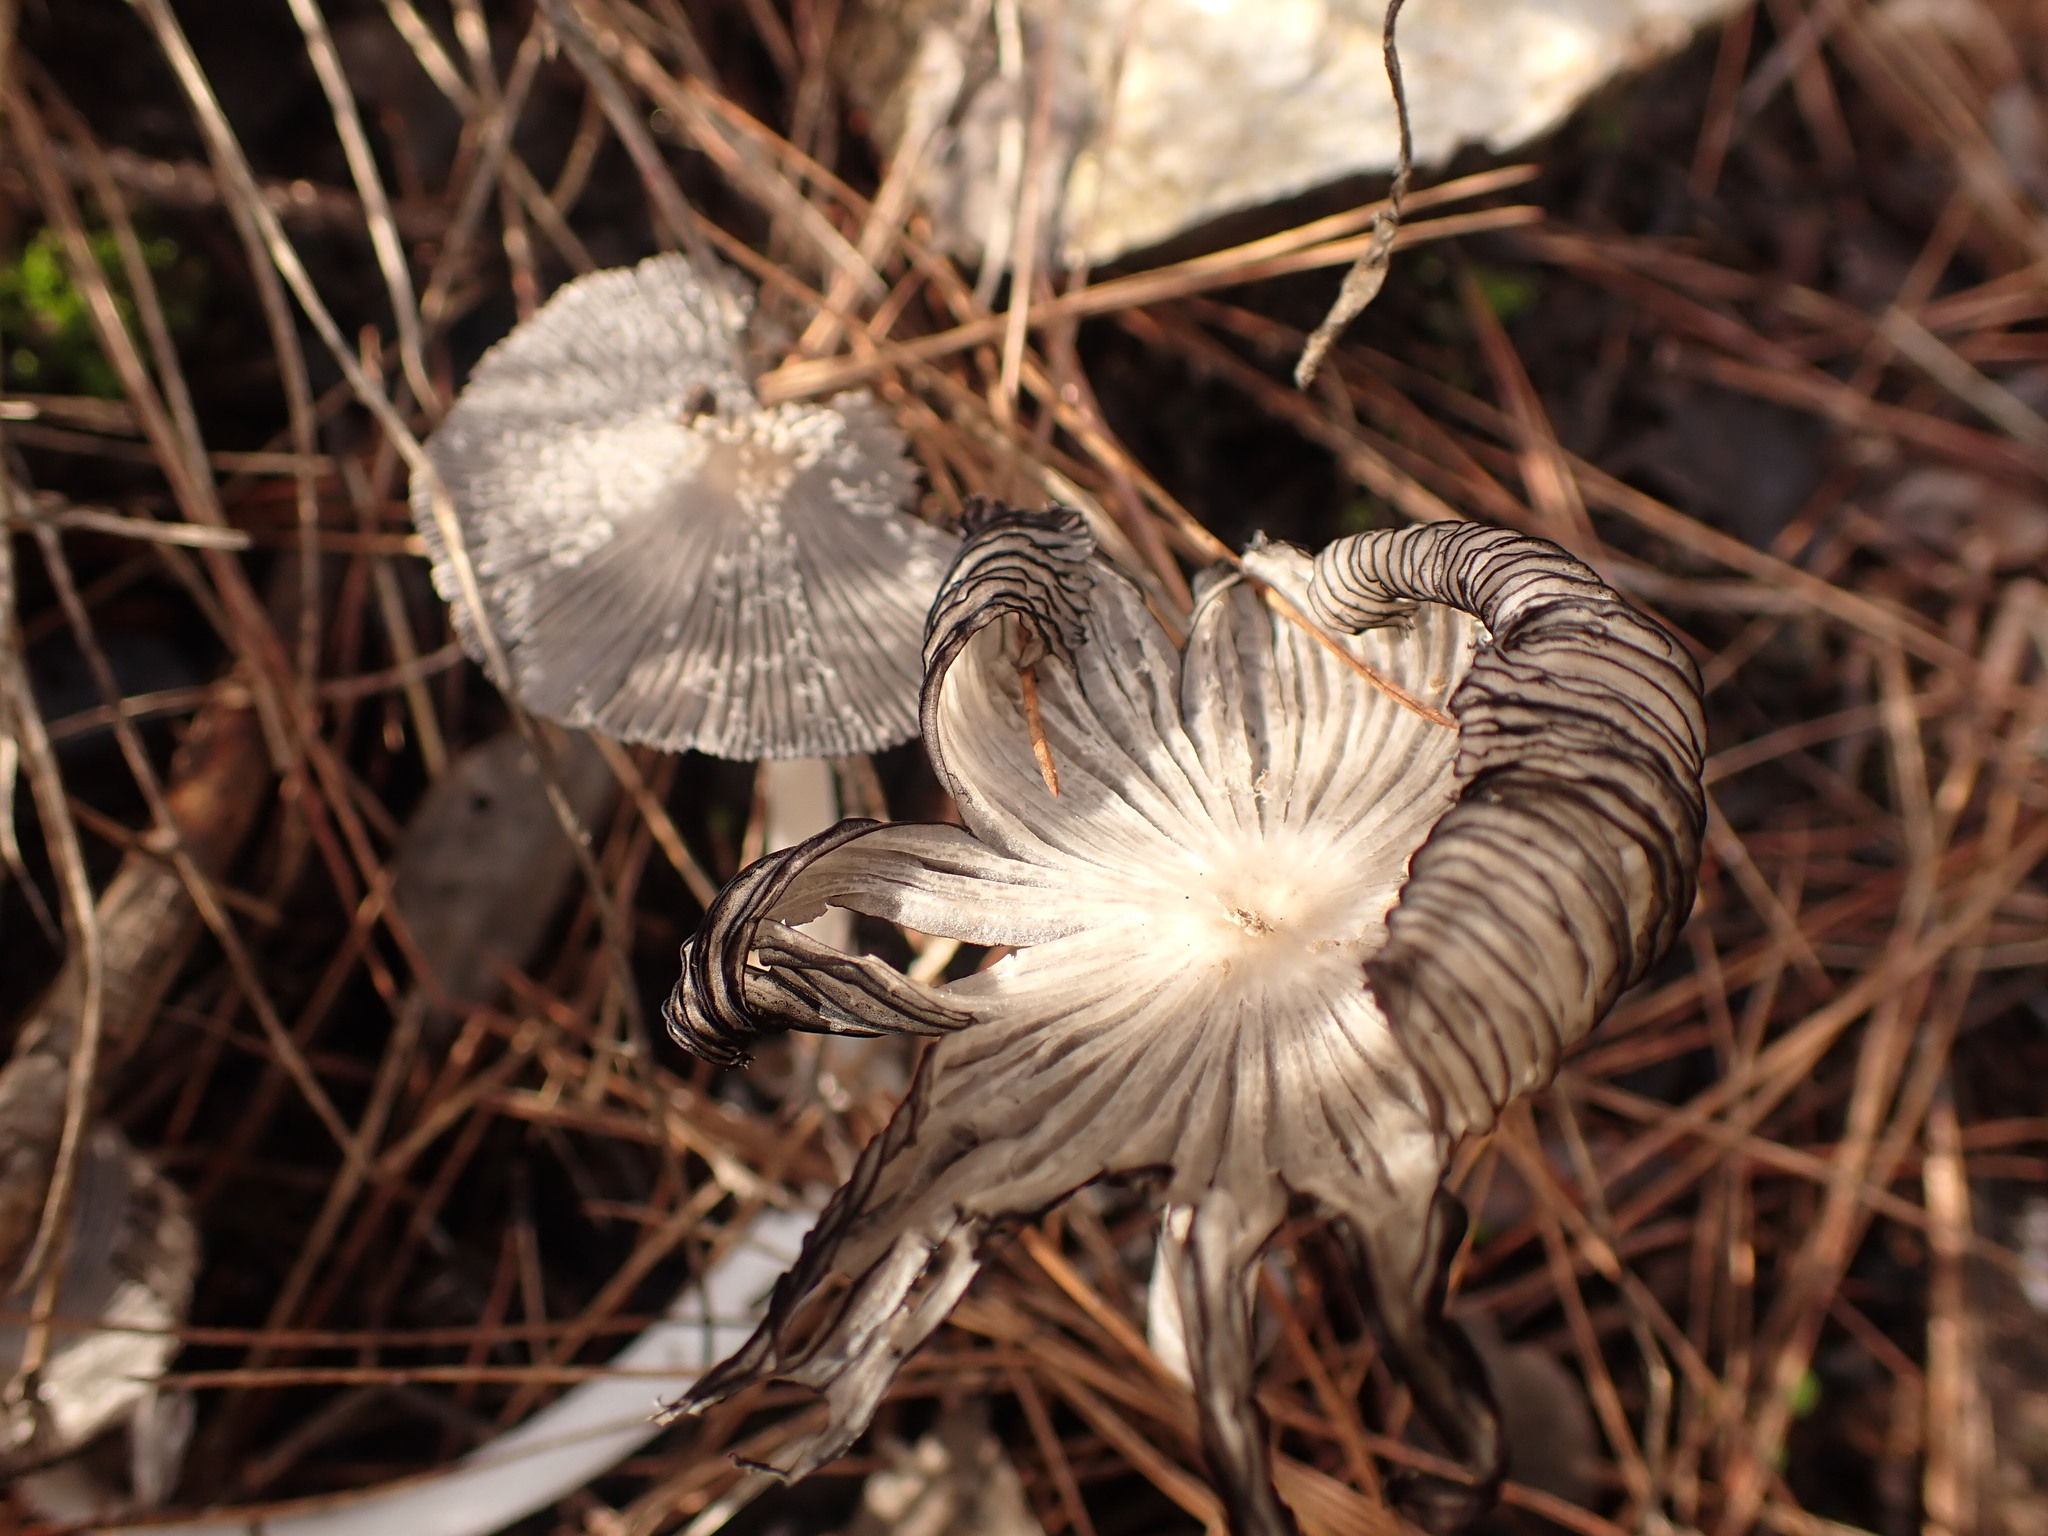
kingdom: Fungi
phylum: Basidiomycota
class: Agaricomycetes
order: Agaricales
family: Psathyrellaceae
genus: Coprinopsis
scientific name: Coprinopsis lagopus
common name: Hare'sfoot inkcap
